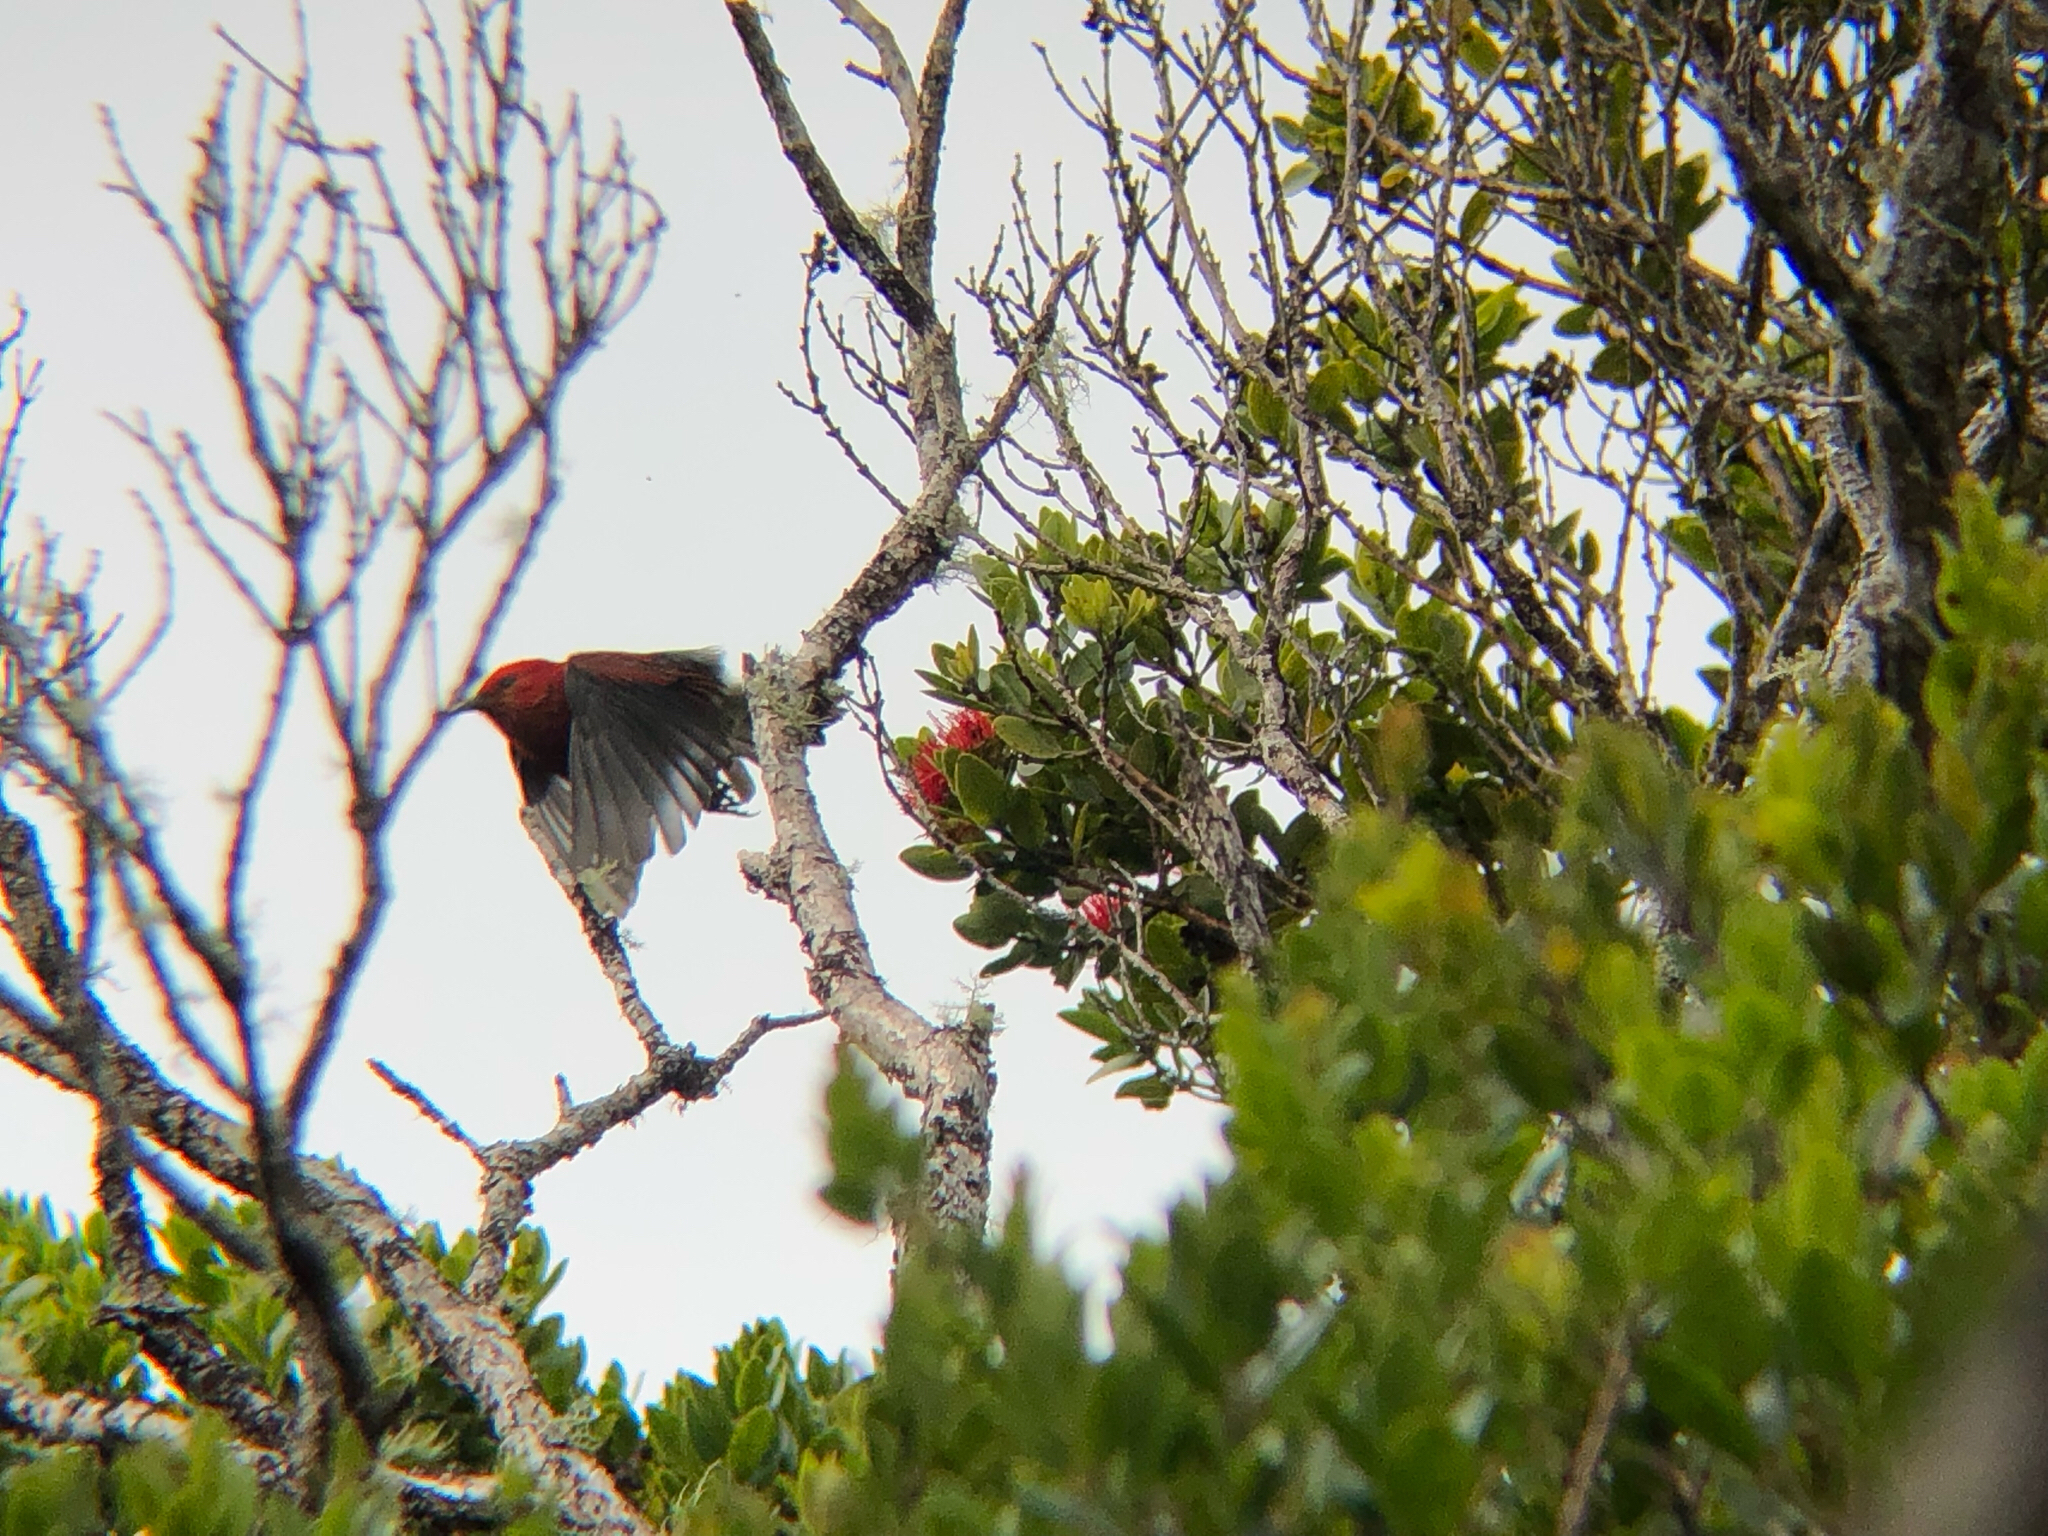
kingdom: Animalia
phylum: Chordata
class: Aves
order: Passeriformes
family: Fringillidae
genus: Himatione
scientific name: Himatione sanguinea
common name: Apapane
